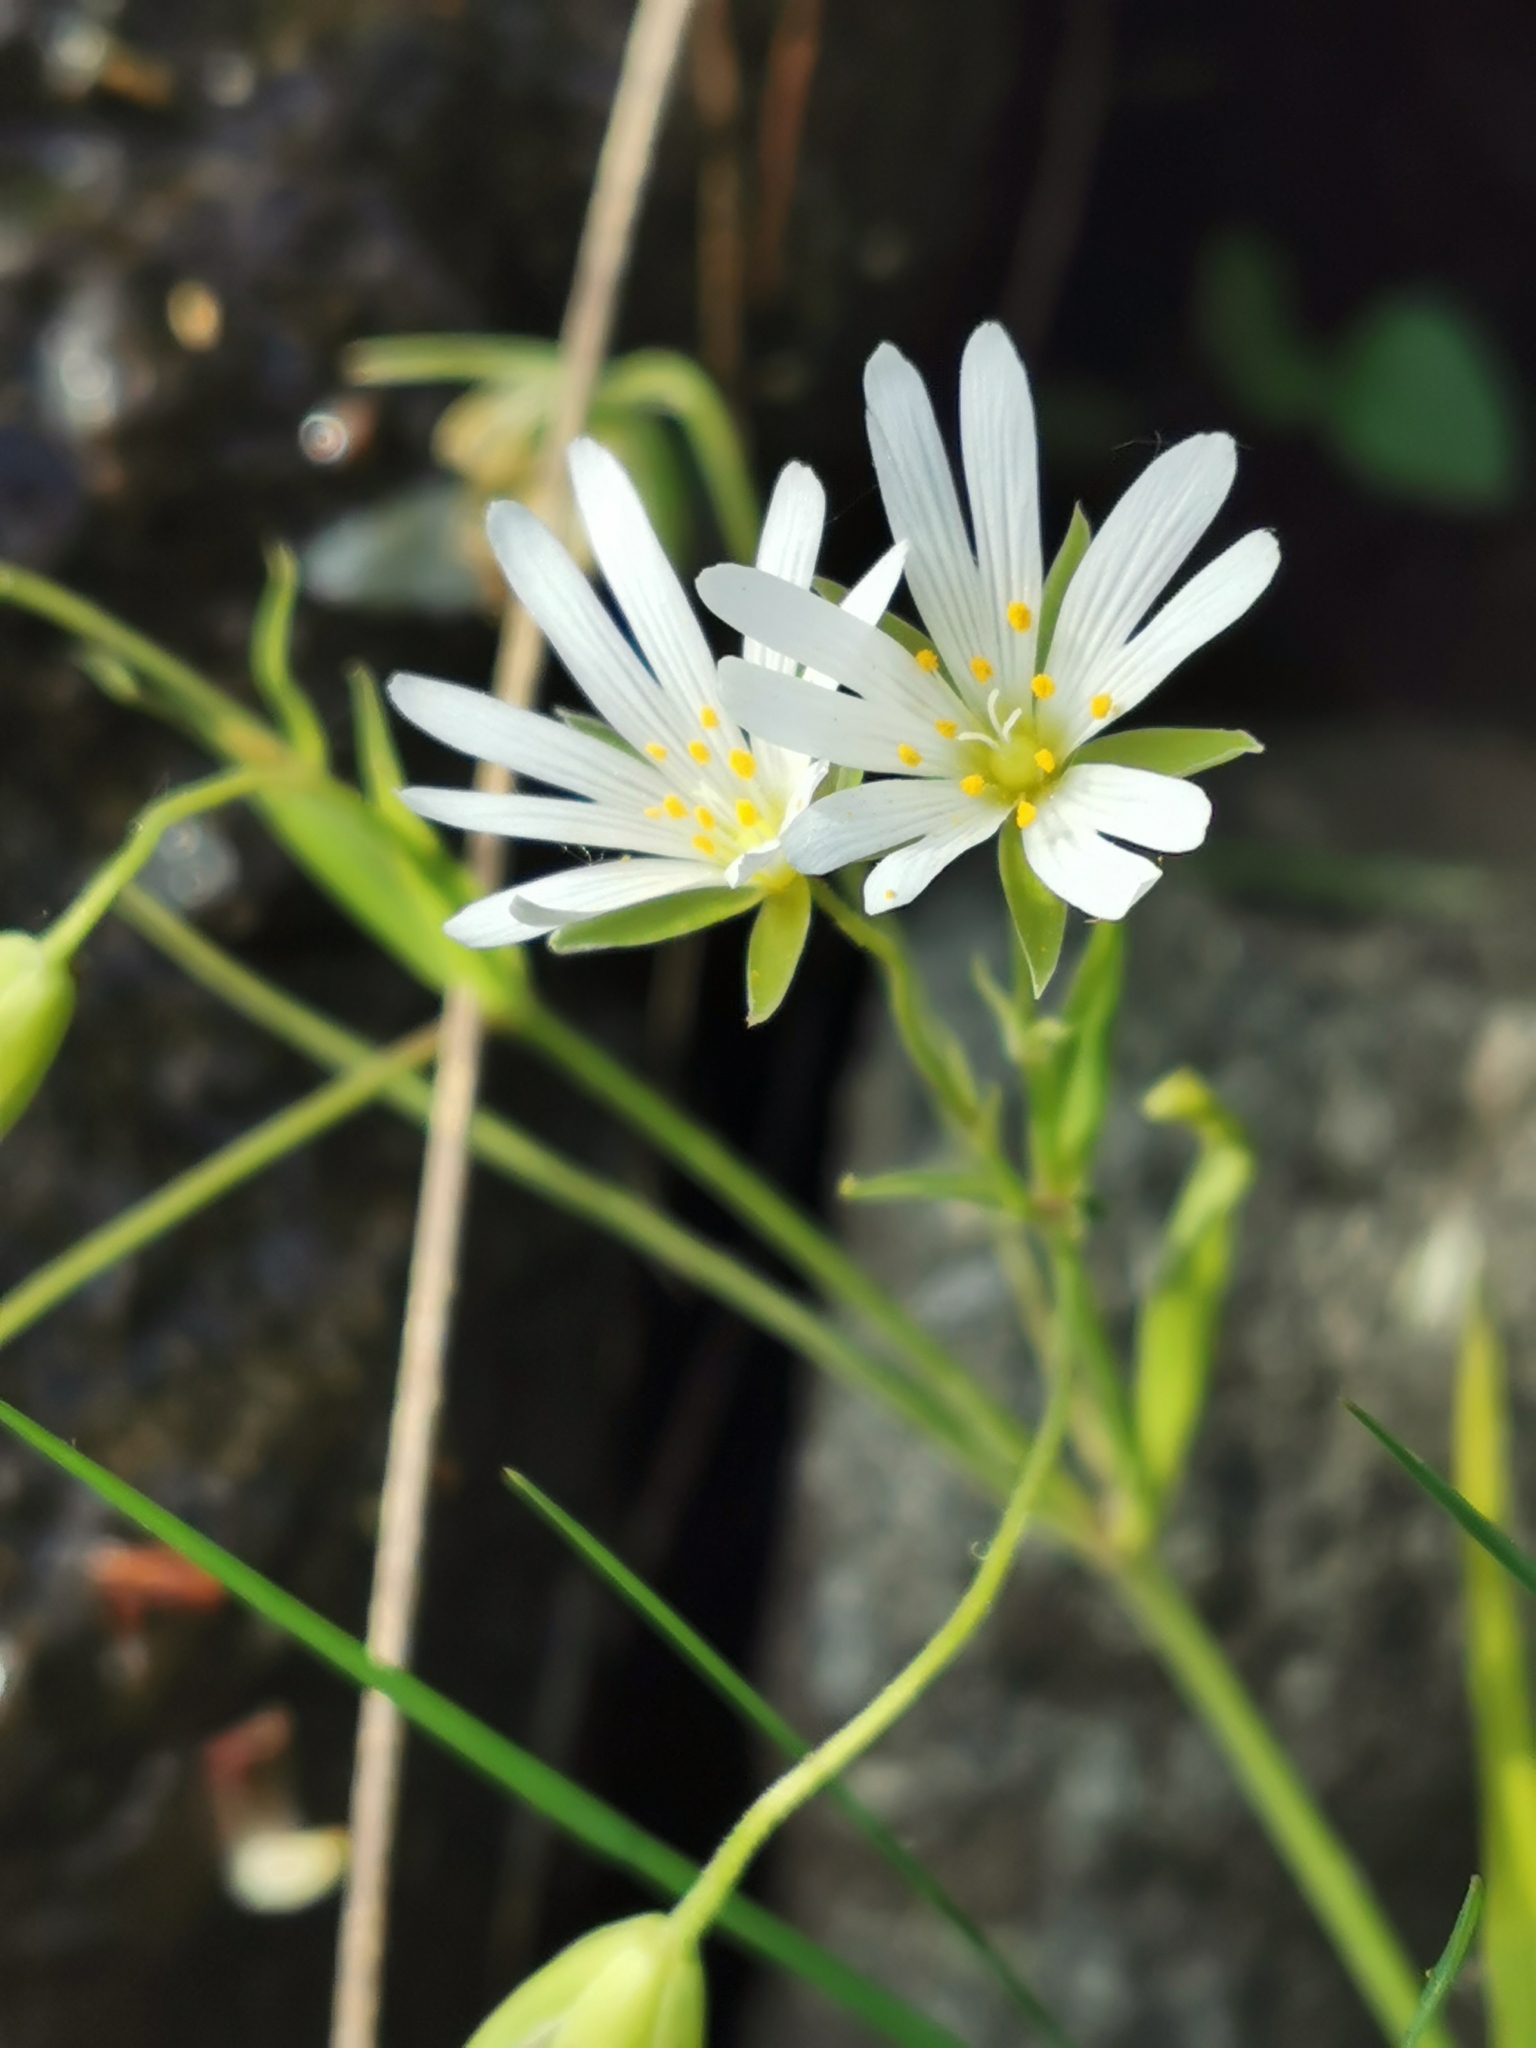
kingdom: Plantae
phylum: Tracheophyta
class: Magnoliopsida
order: Caryophyllales
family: Caryophyllaceae
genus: Rabelera
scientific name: Rabelera holostea
